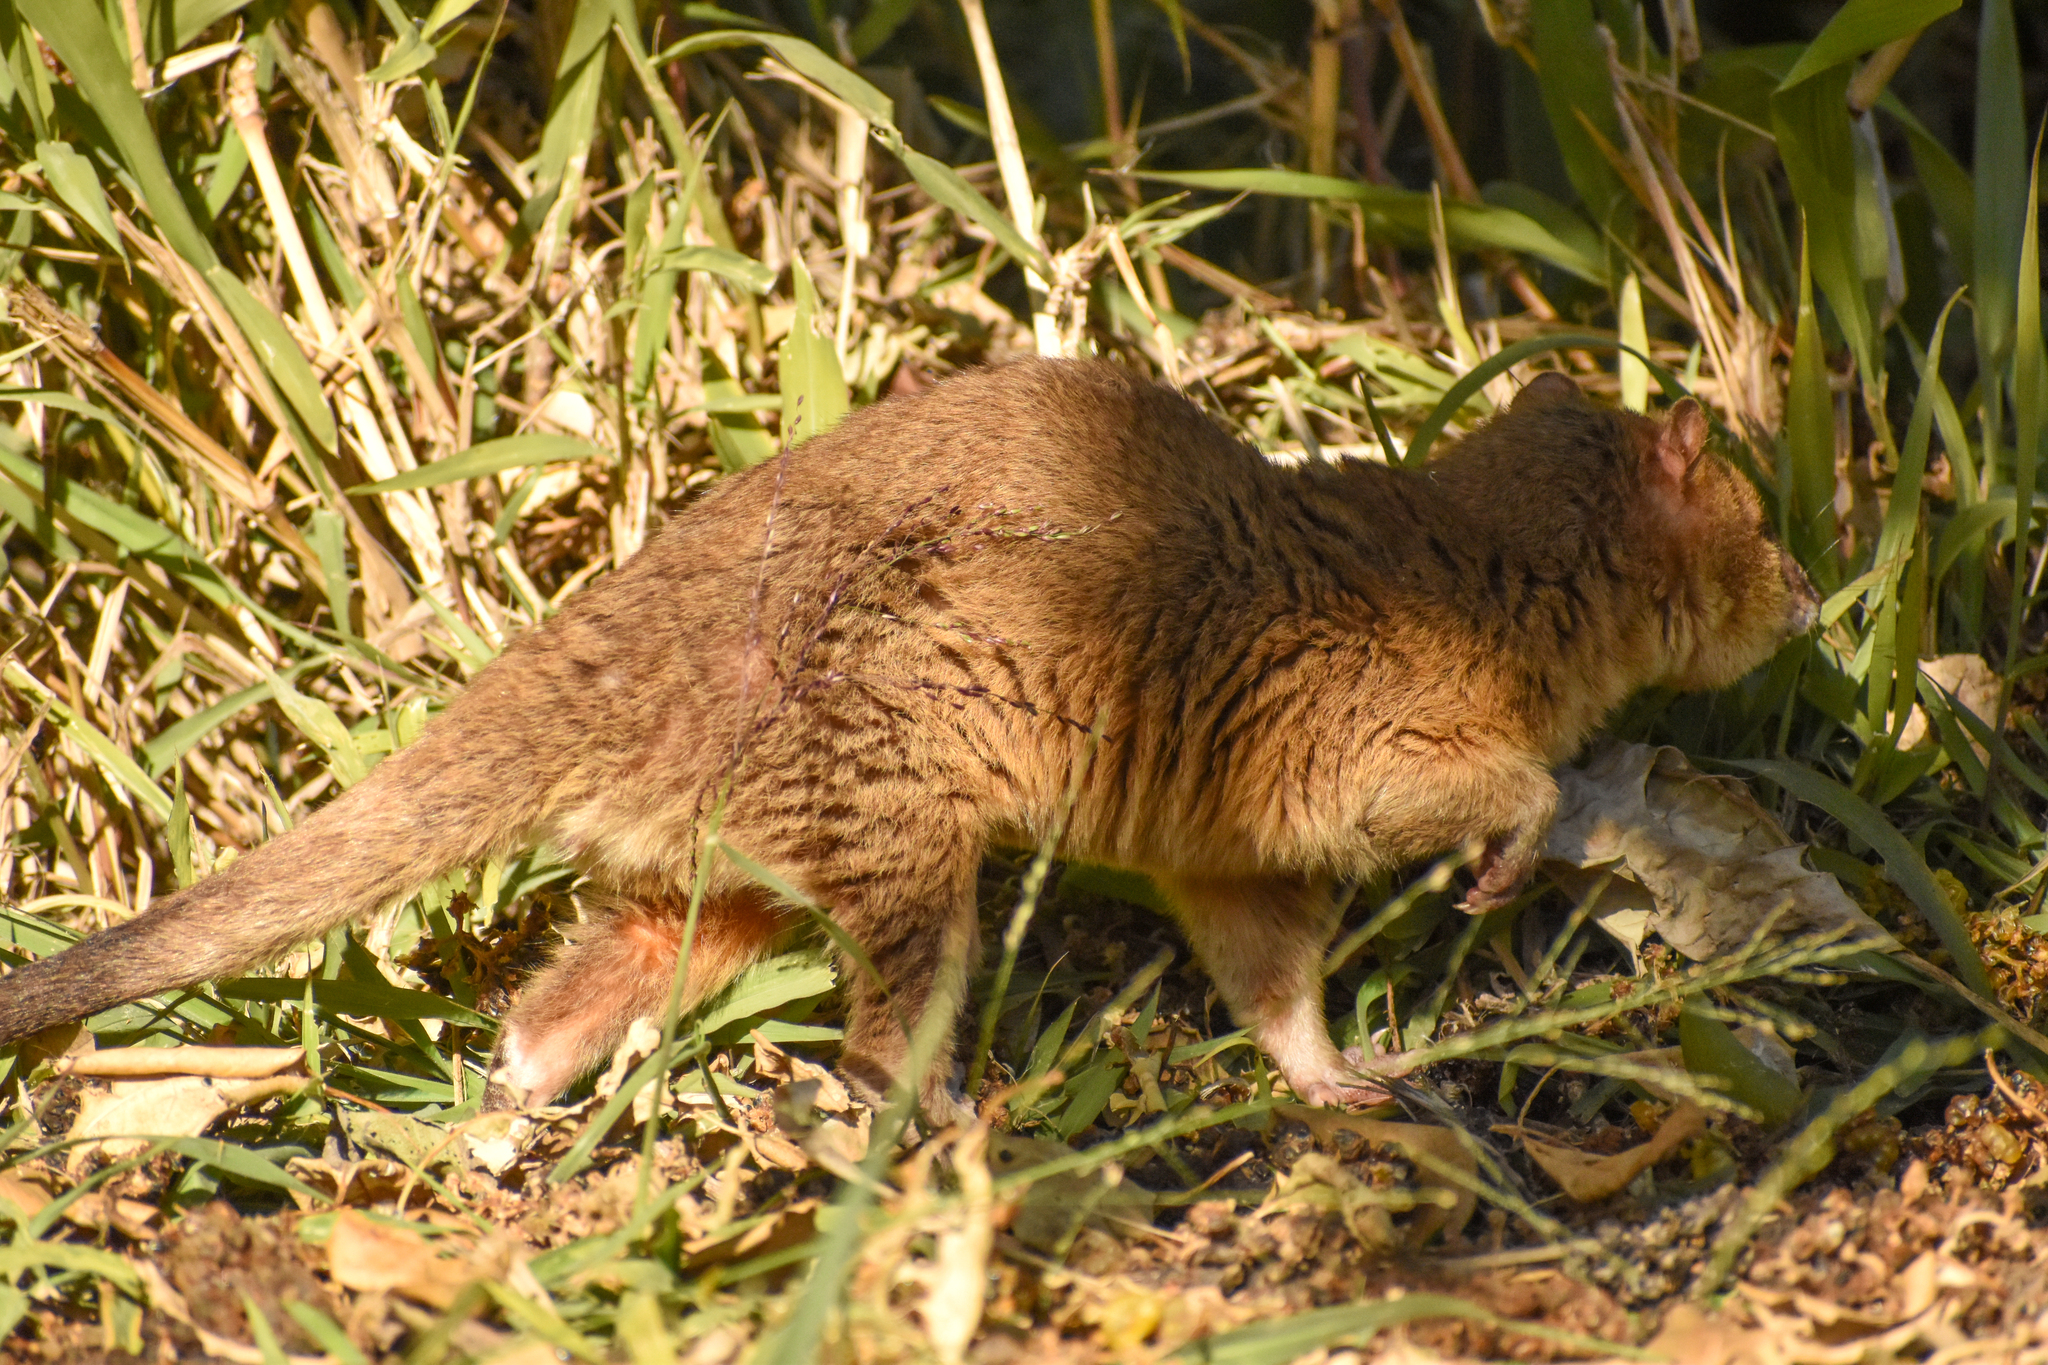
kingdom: Animalia
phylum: Chordata
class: Mammalia
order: Didelphimorphia
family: Didelphidae
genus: Lutreolina
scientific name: Lutreolina crassicaudata
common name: Lutrine opossum
